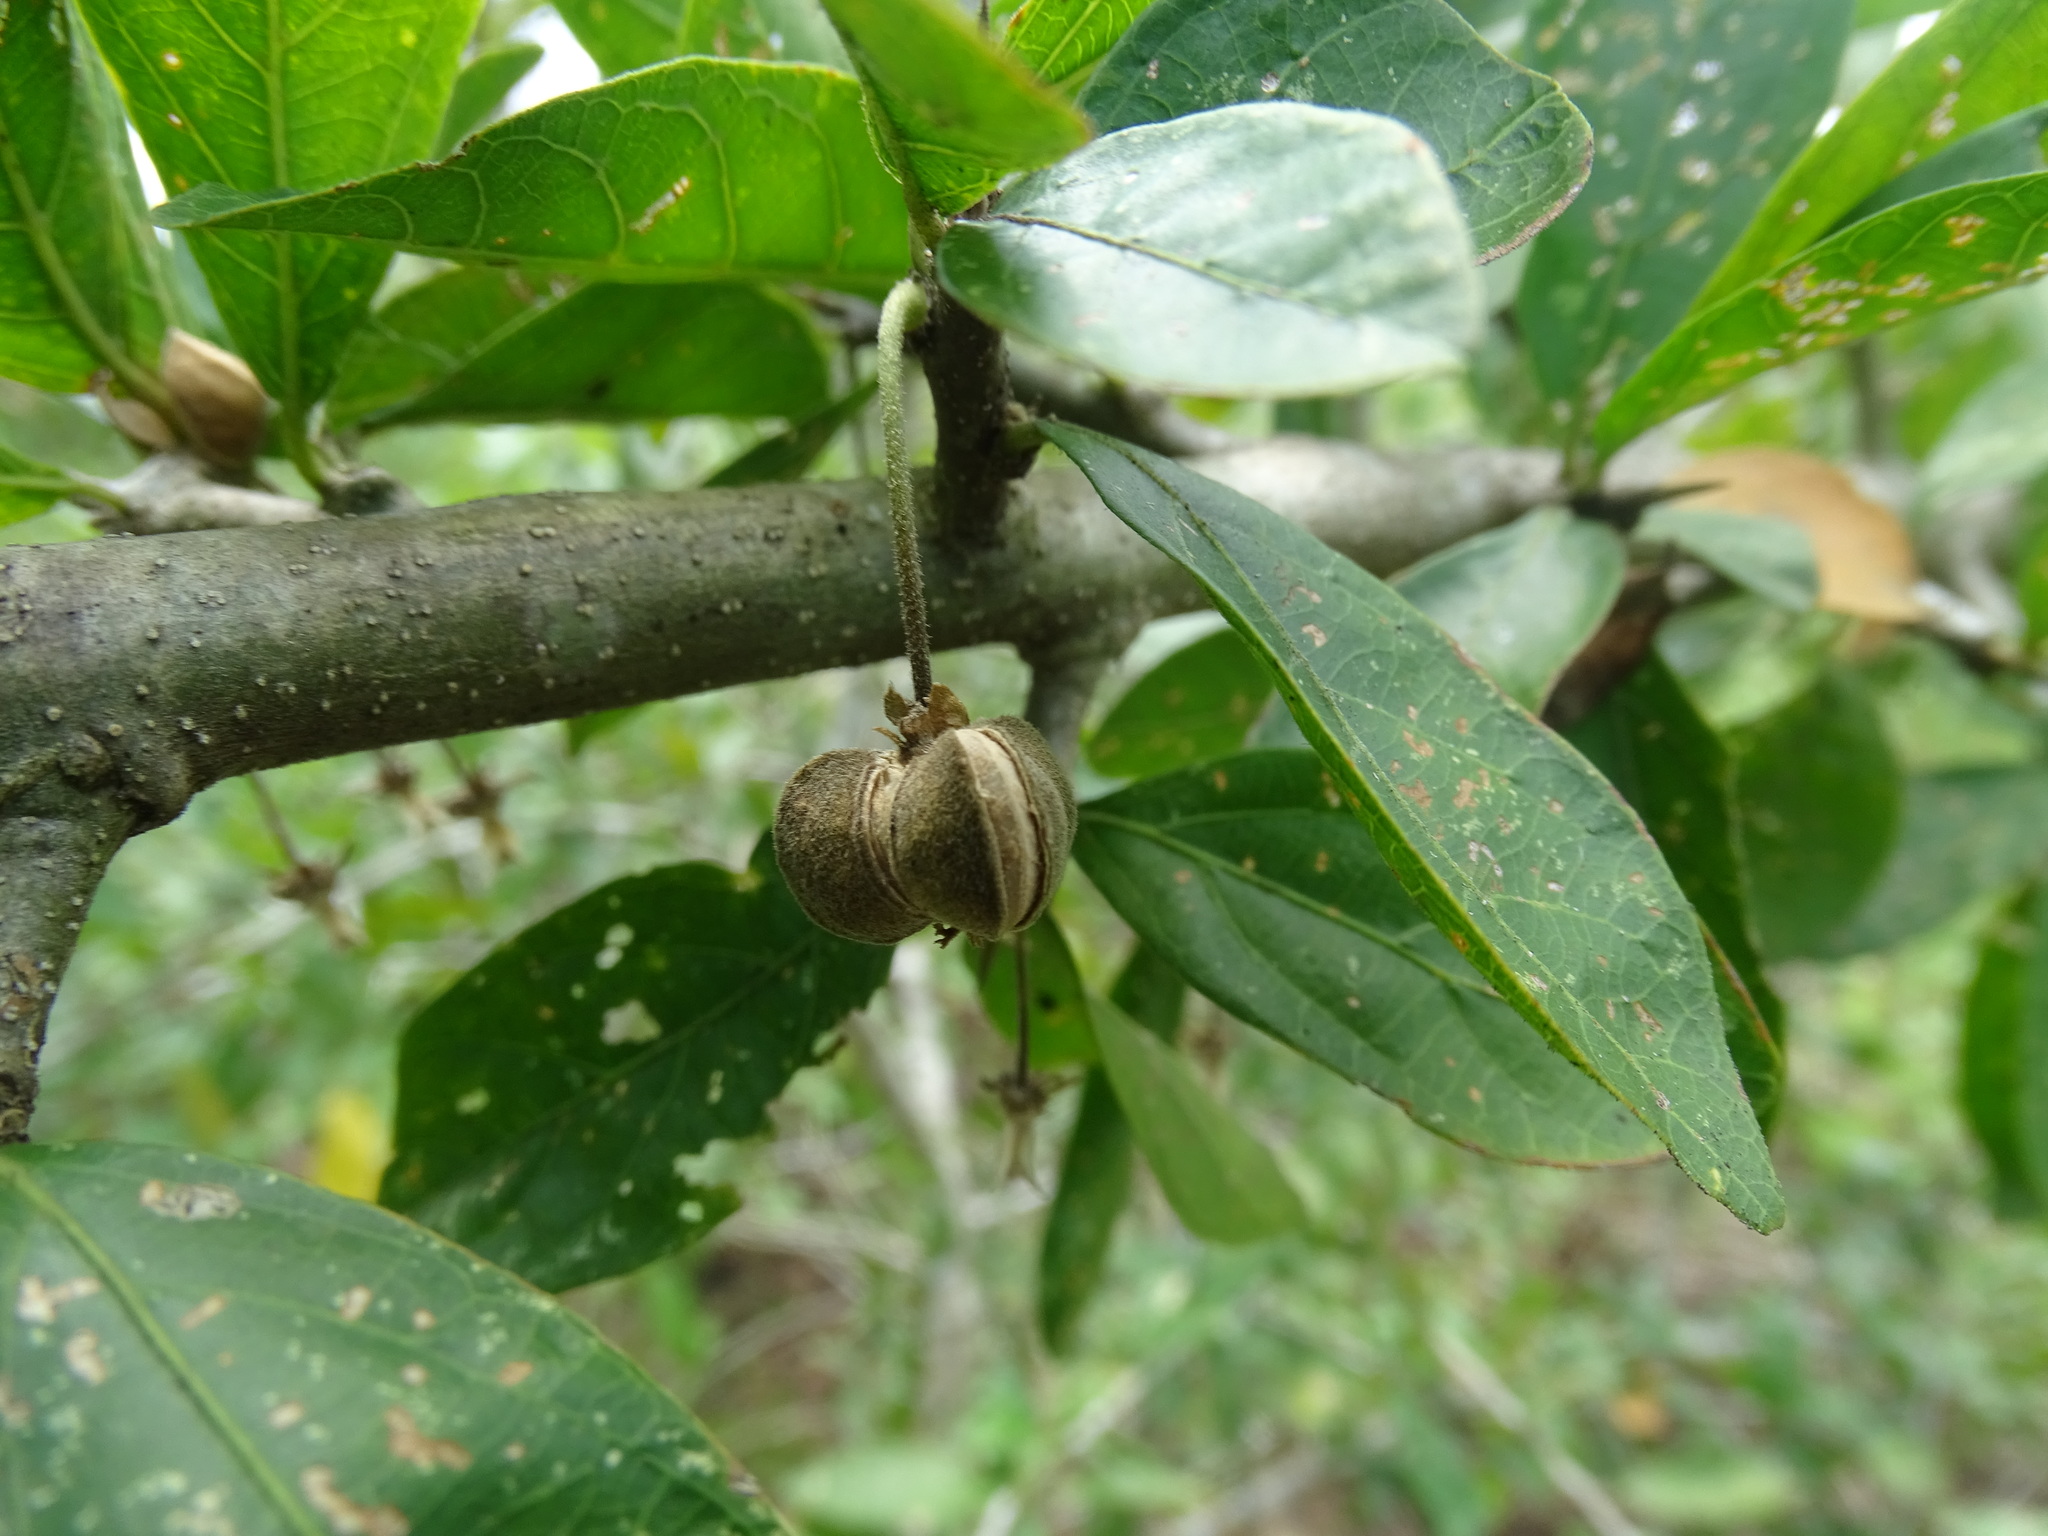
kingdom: Plantae
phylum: Tracheophyta
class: Magnoliopsida
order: Malpighiales
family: Euphorbiaceae
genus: Adelia
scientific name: Adelia barbinervis
